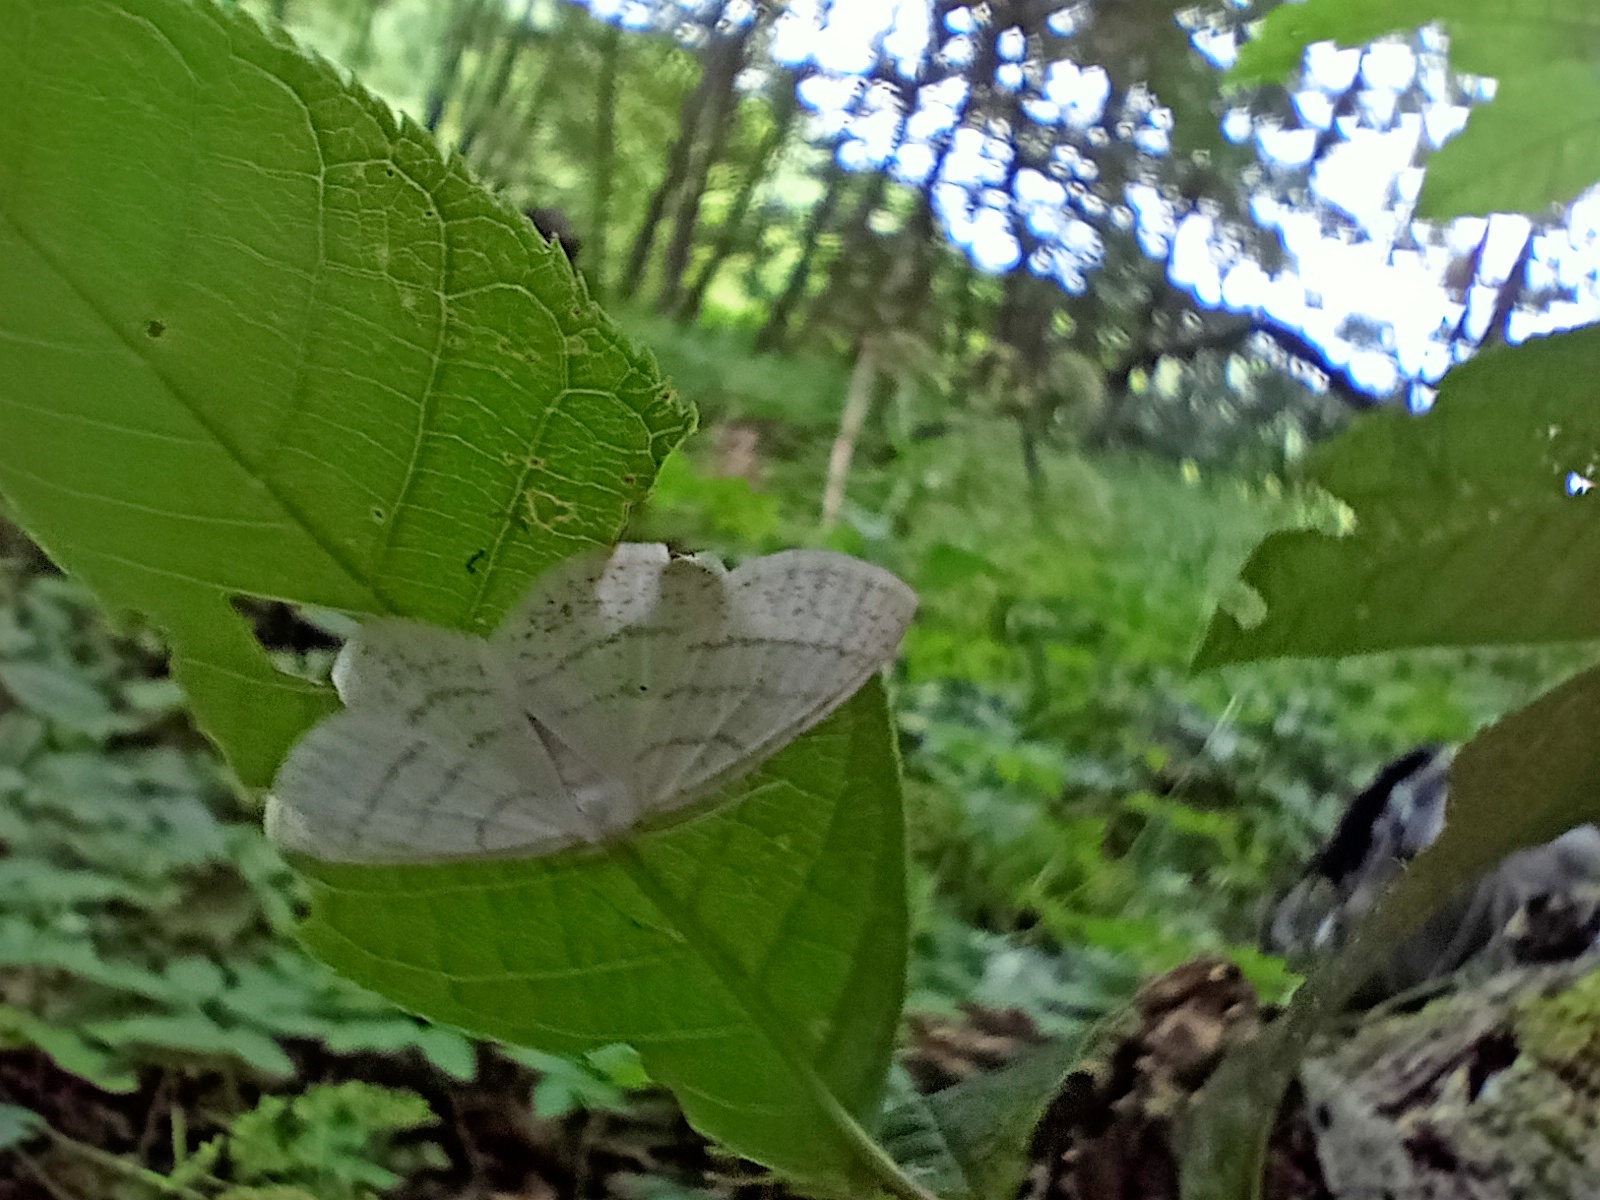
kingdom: Animalia
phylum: Arthropoda
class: Insecta
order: Lepidoptera
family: Geometridae
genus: Cabera
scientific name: Cabera pusaria
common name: Common white wave
